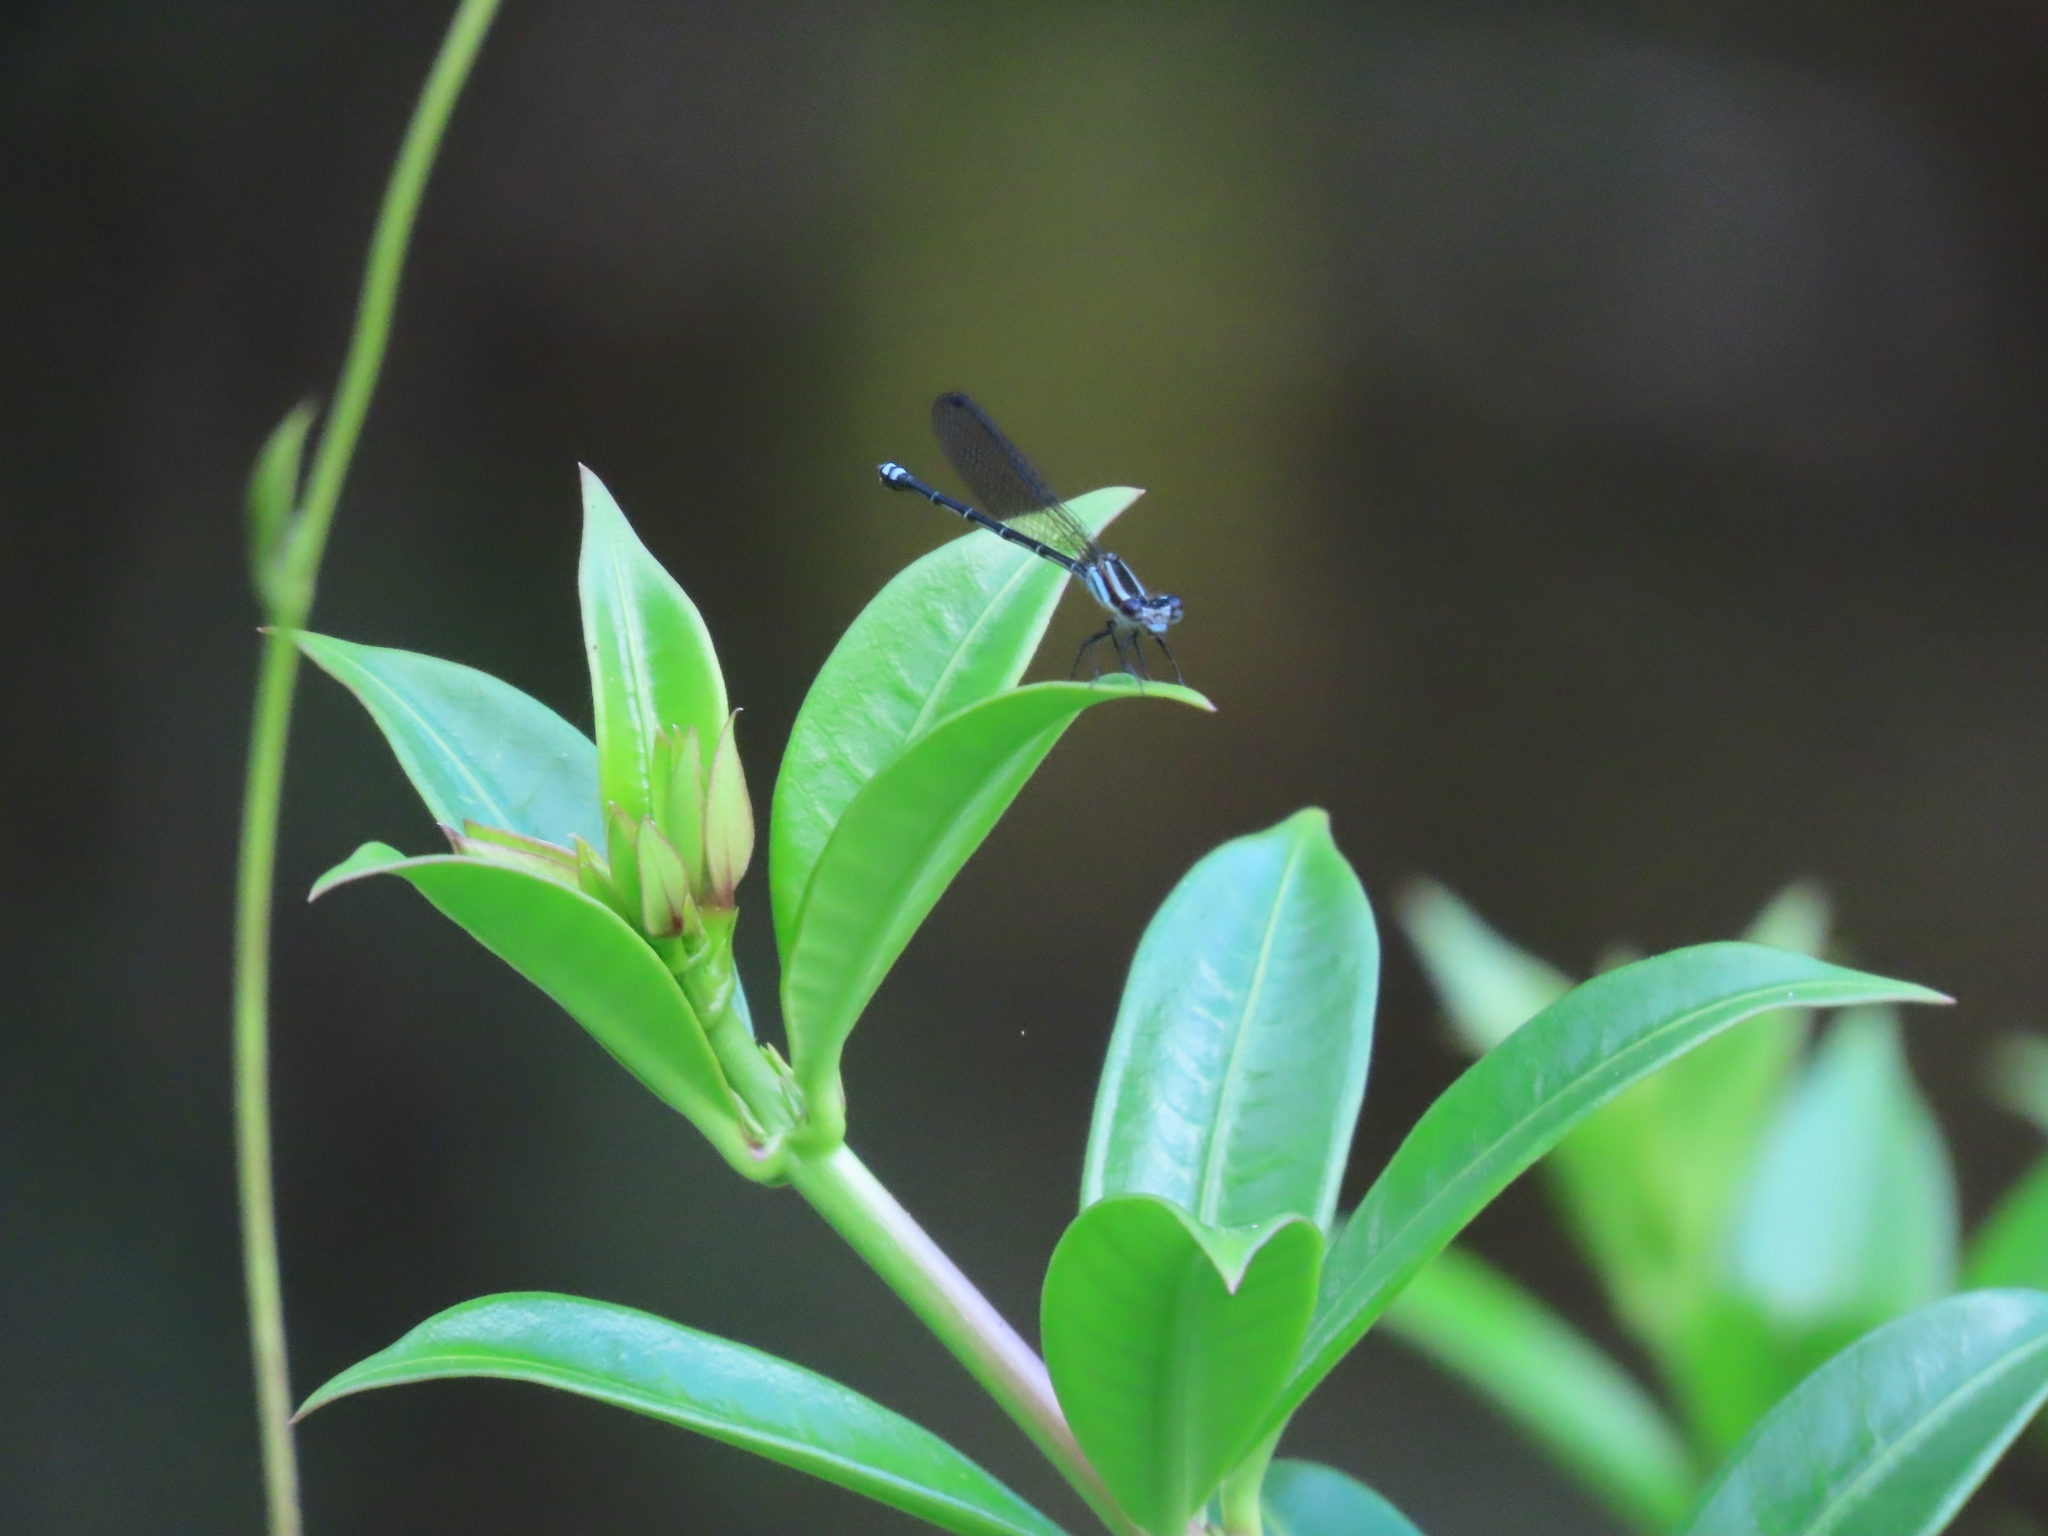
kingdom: Animalia
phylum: Arthropoda
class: Insecta
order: Odonata
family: Coenagrionidae
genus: Argia
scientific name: Argia oculata
